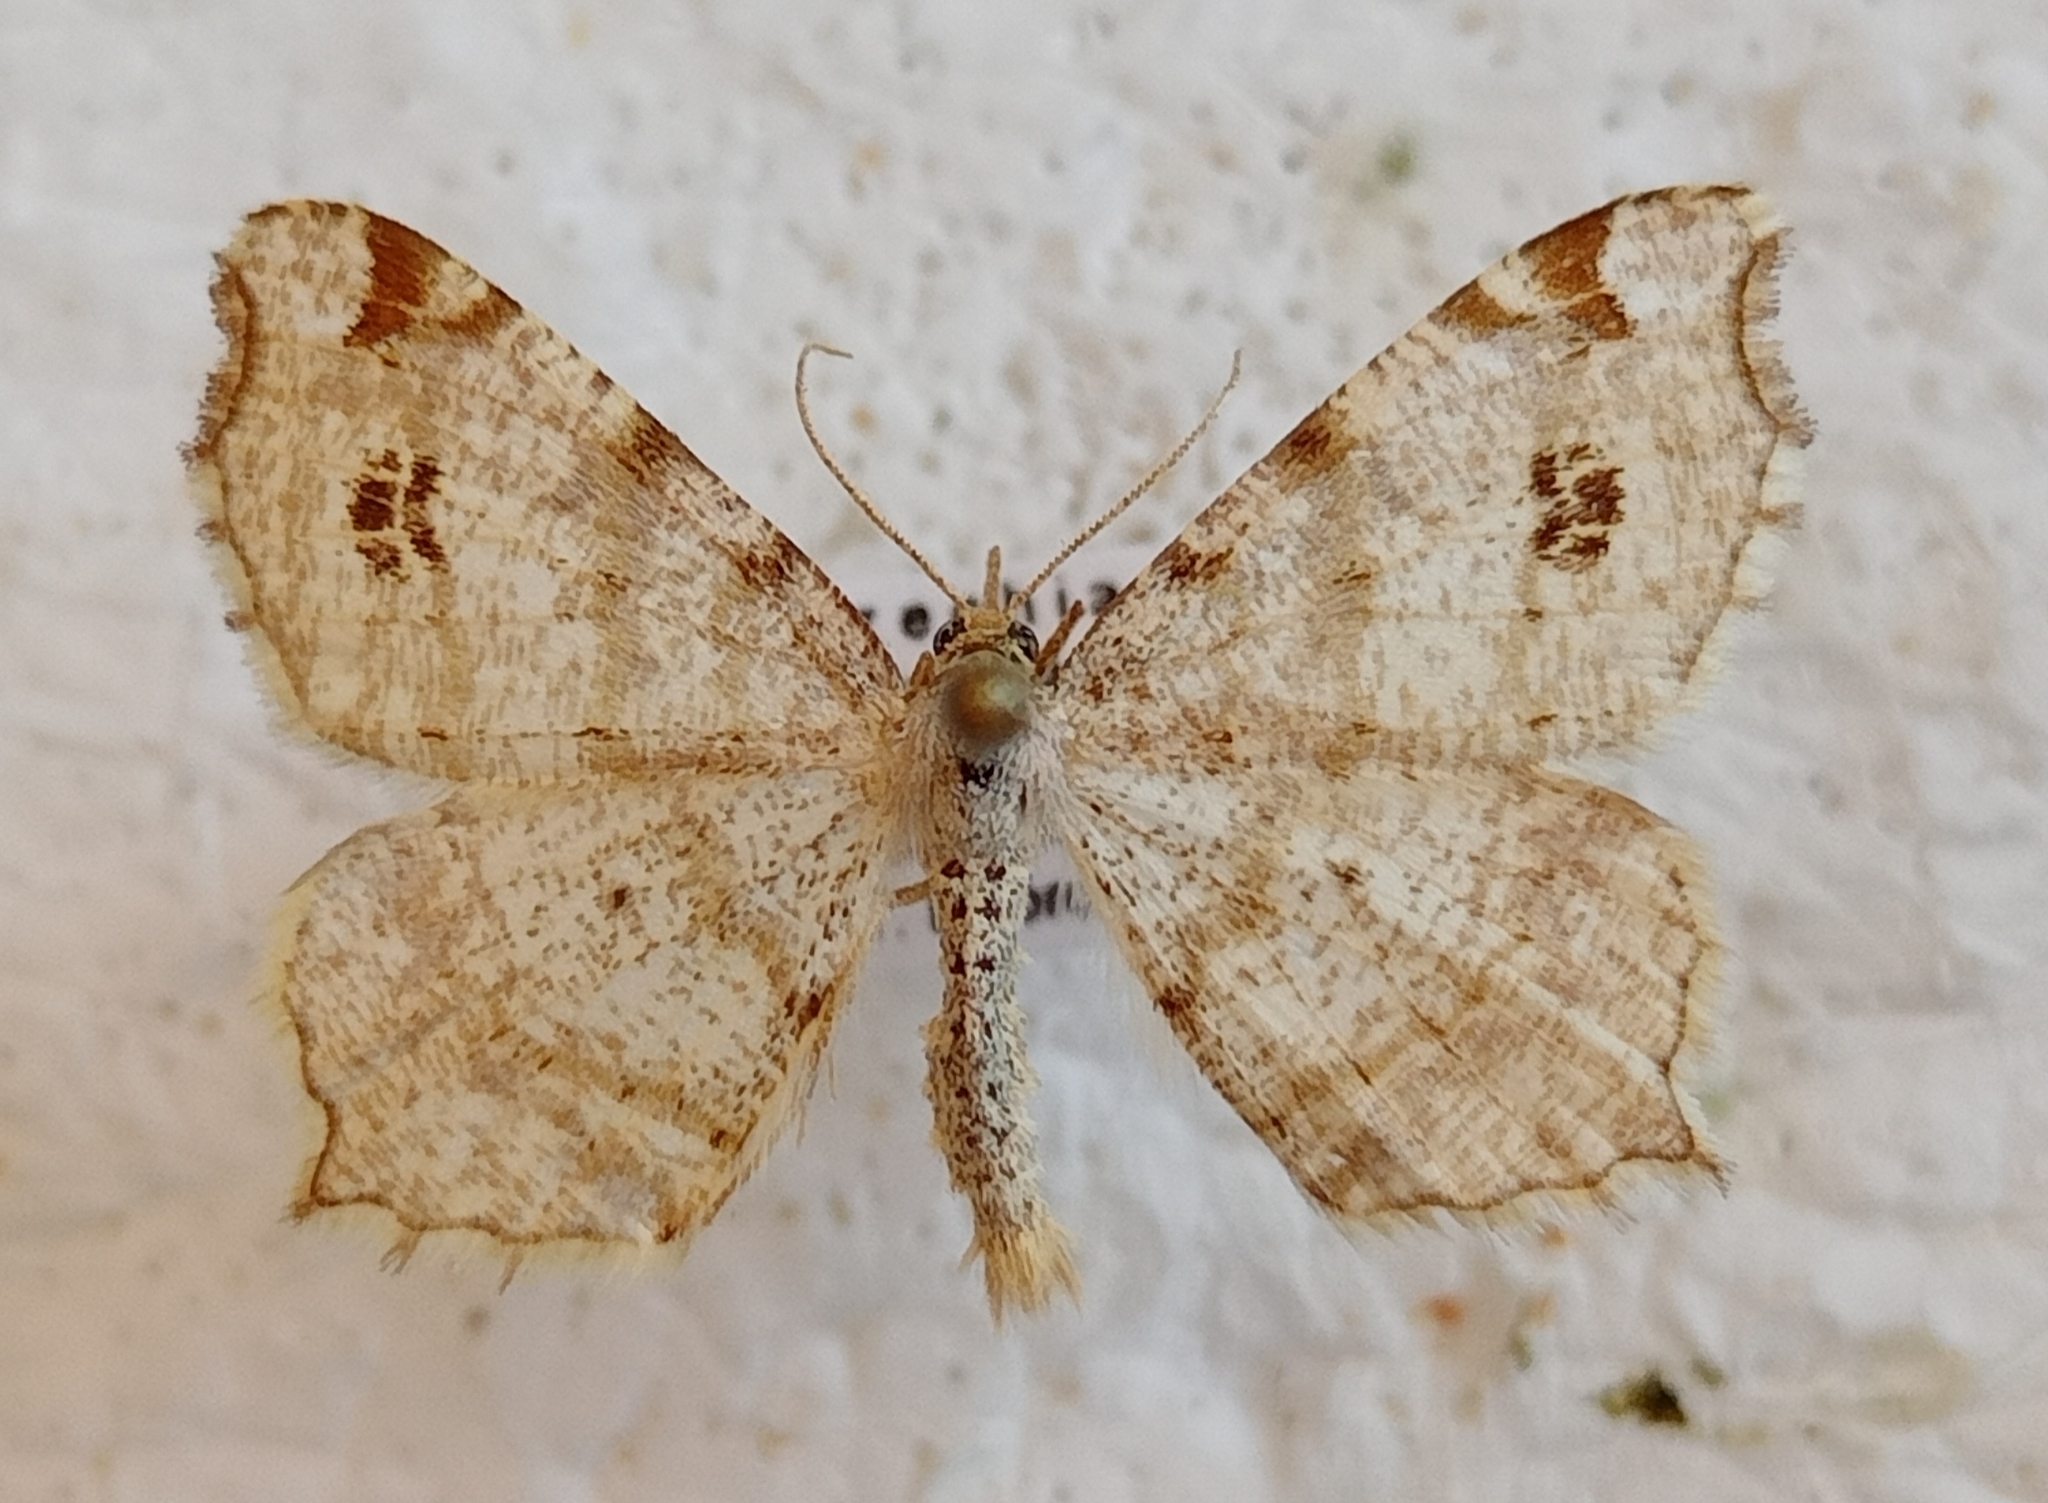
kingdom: Animalia
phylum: Arthropoda
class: Insecta
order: Lepidoptera
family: Geometridae
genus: Macaria
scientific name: Macaria notata
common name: Peacock moth
